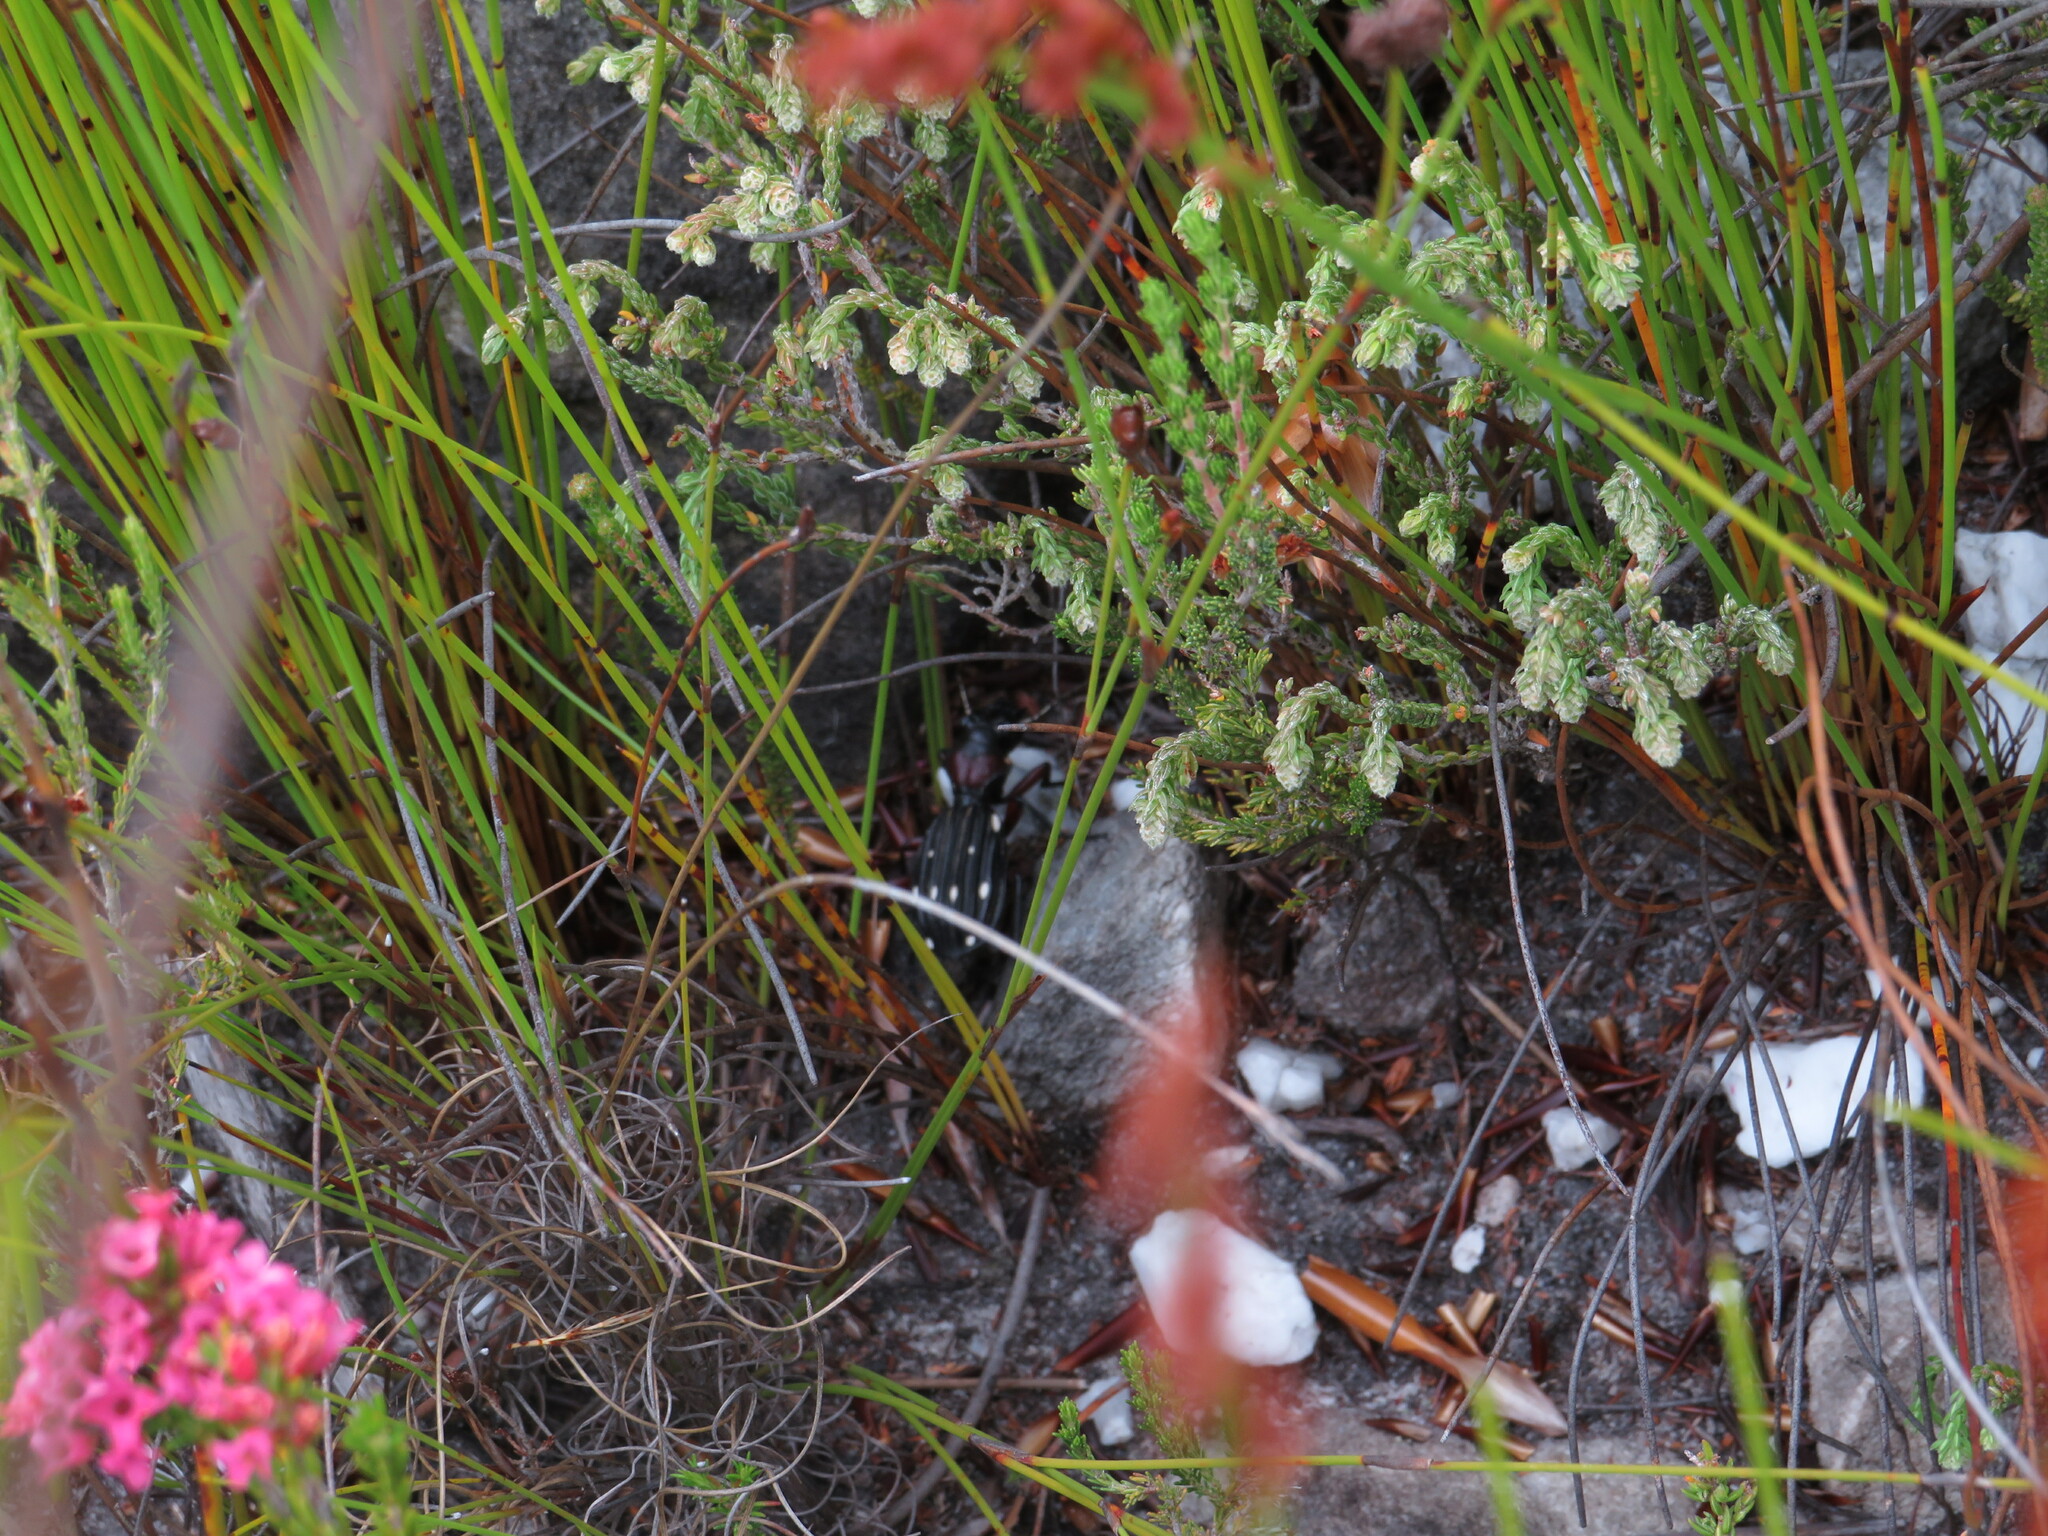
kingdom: Animalia
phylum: Arthropoda
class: Insecta
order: Coleoptera
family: Carabidae
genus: Anthia
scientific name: Anthia decemguttata
